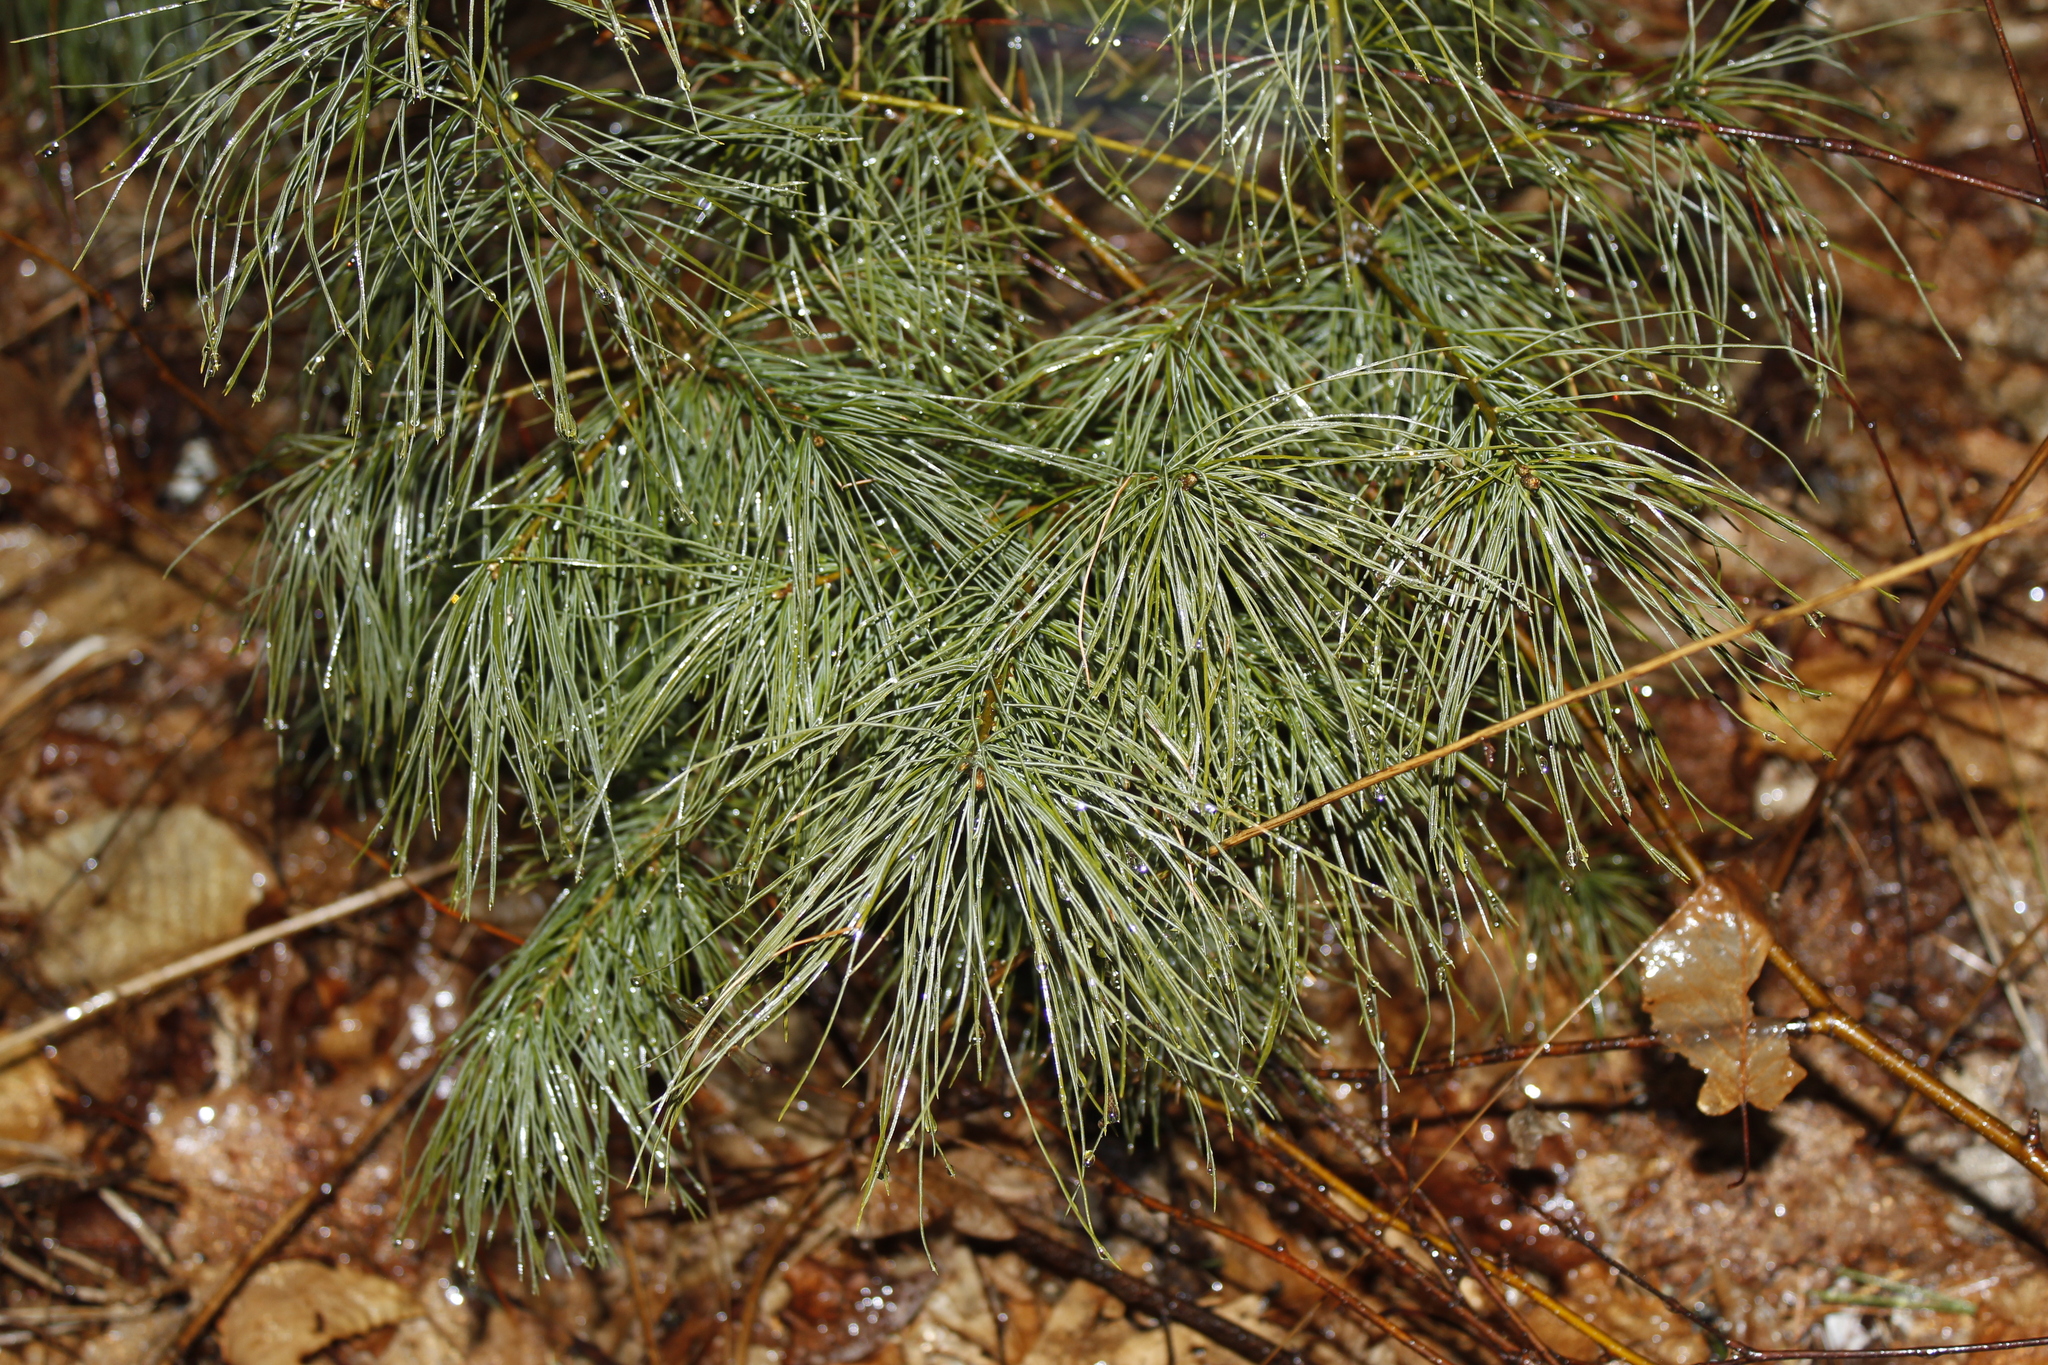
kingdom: Plantae
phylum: Tracheophyta
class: Pinopsida
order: Pinales
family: Pinaceae
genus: Pinus
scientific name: Pinus strobus
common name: Weymouth pine
